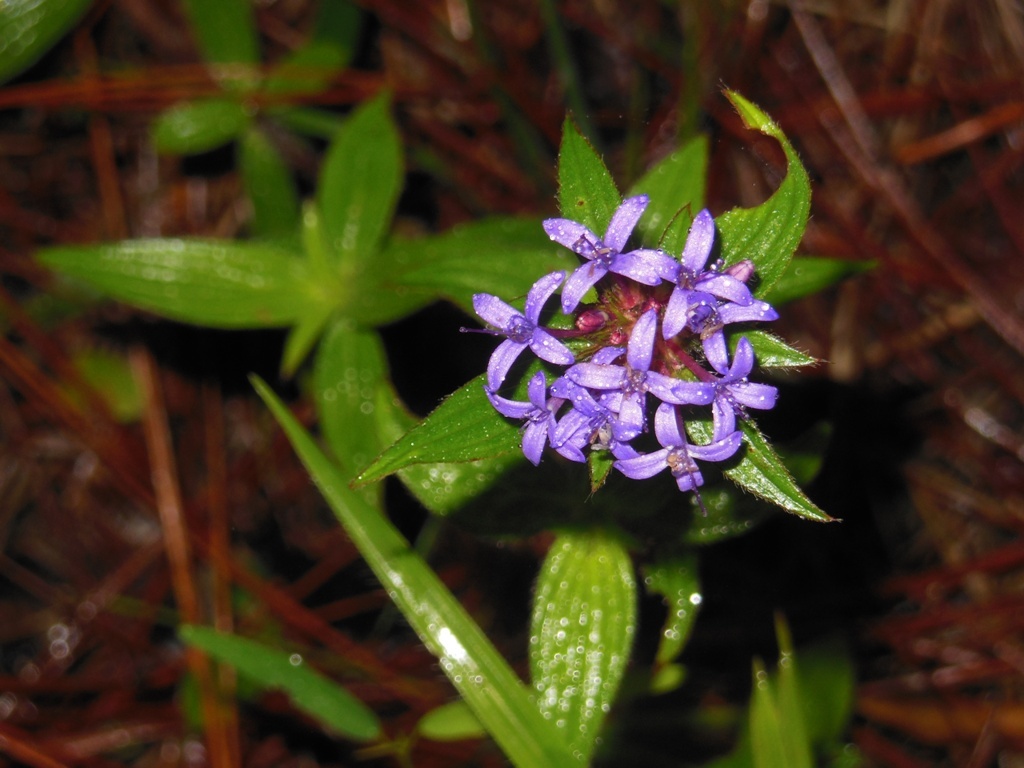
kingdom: Plantae
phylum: Tracheophyta
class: Magnoliopsida
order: Gentianales
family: Rubiaceae
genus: Crusea
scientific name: Crusea hispida
